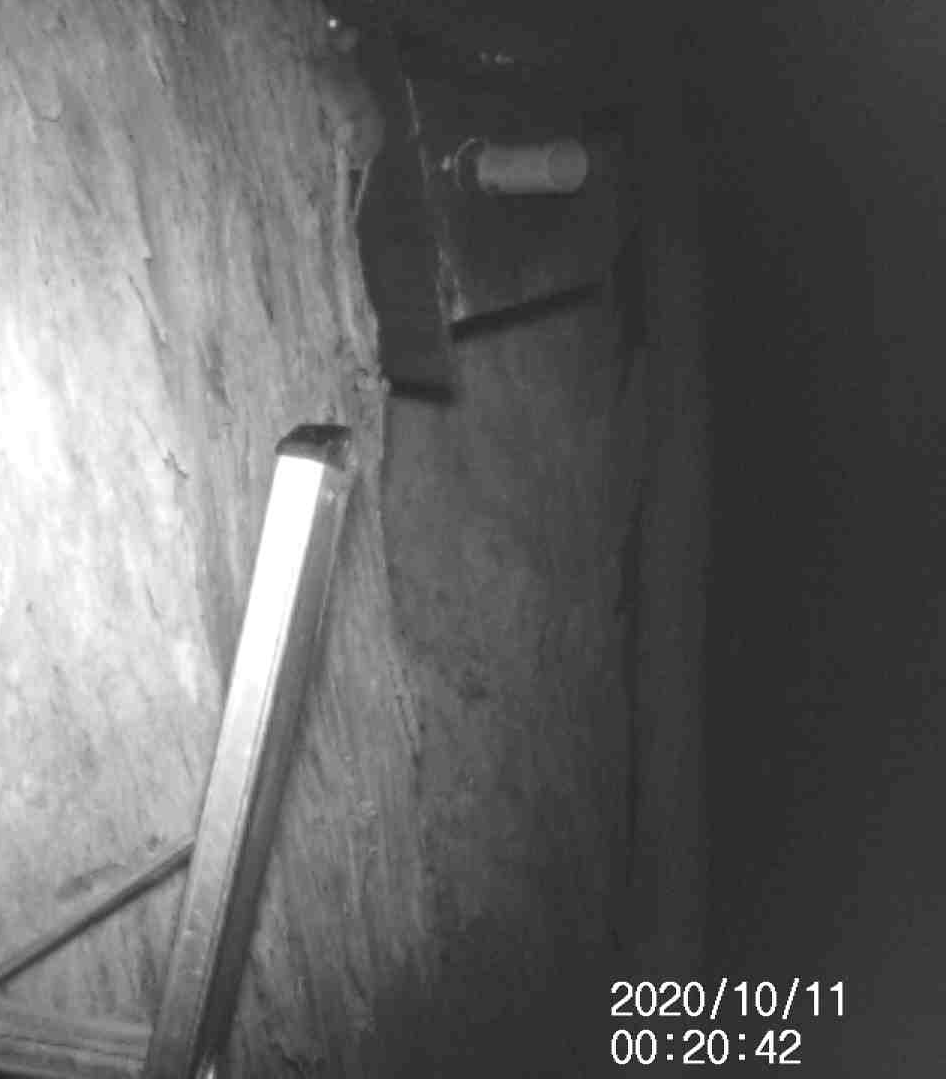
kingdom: Animalia
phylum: Chordata
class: Mammalia
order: Dasyuromorphia
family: Dasyuridae
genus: Antechinus
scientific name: Antechinus agilis
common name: Agile antechinus
